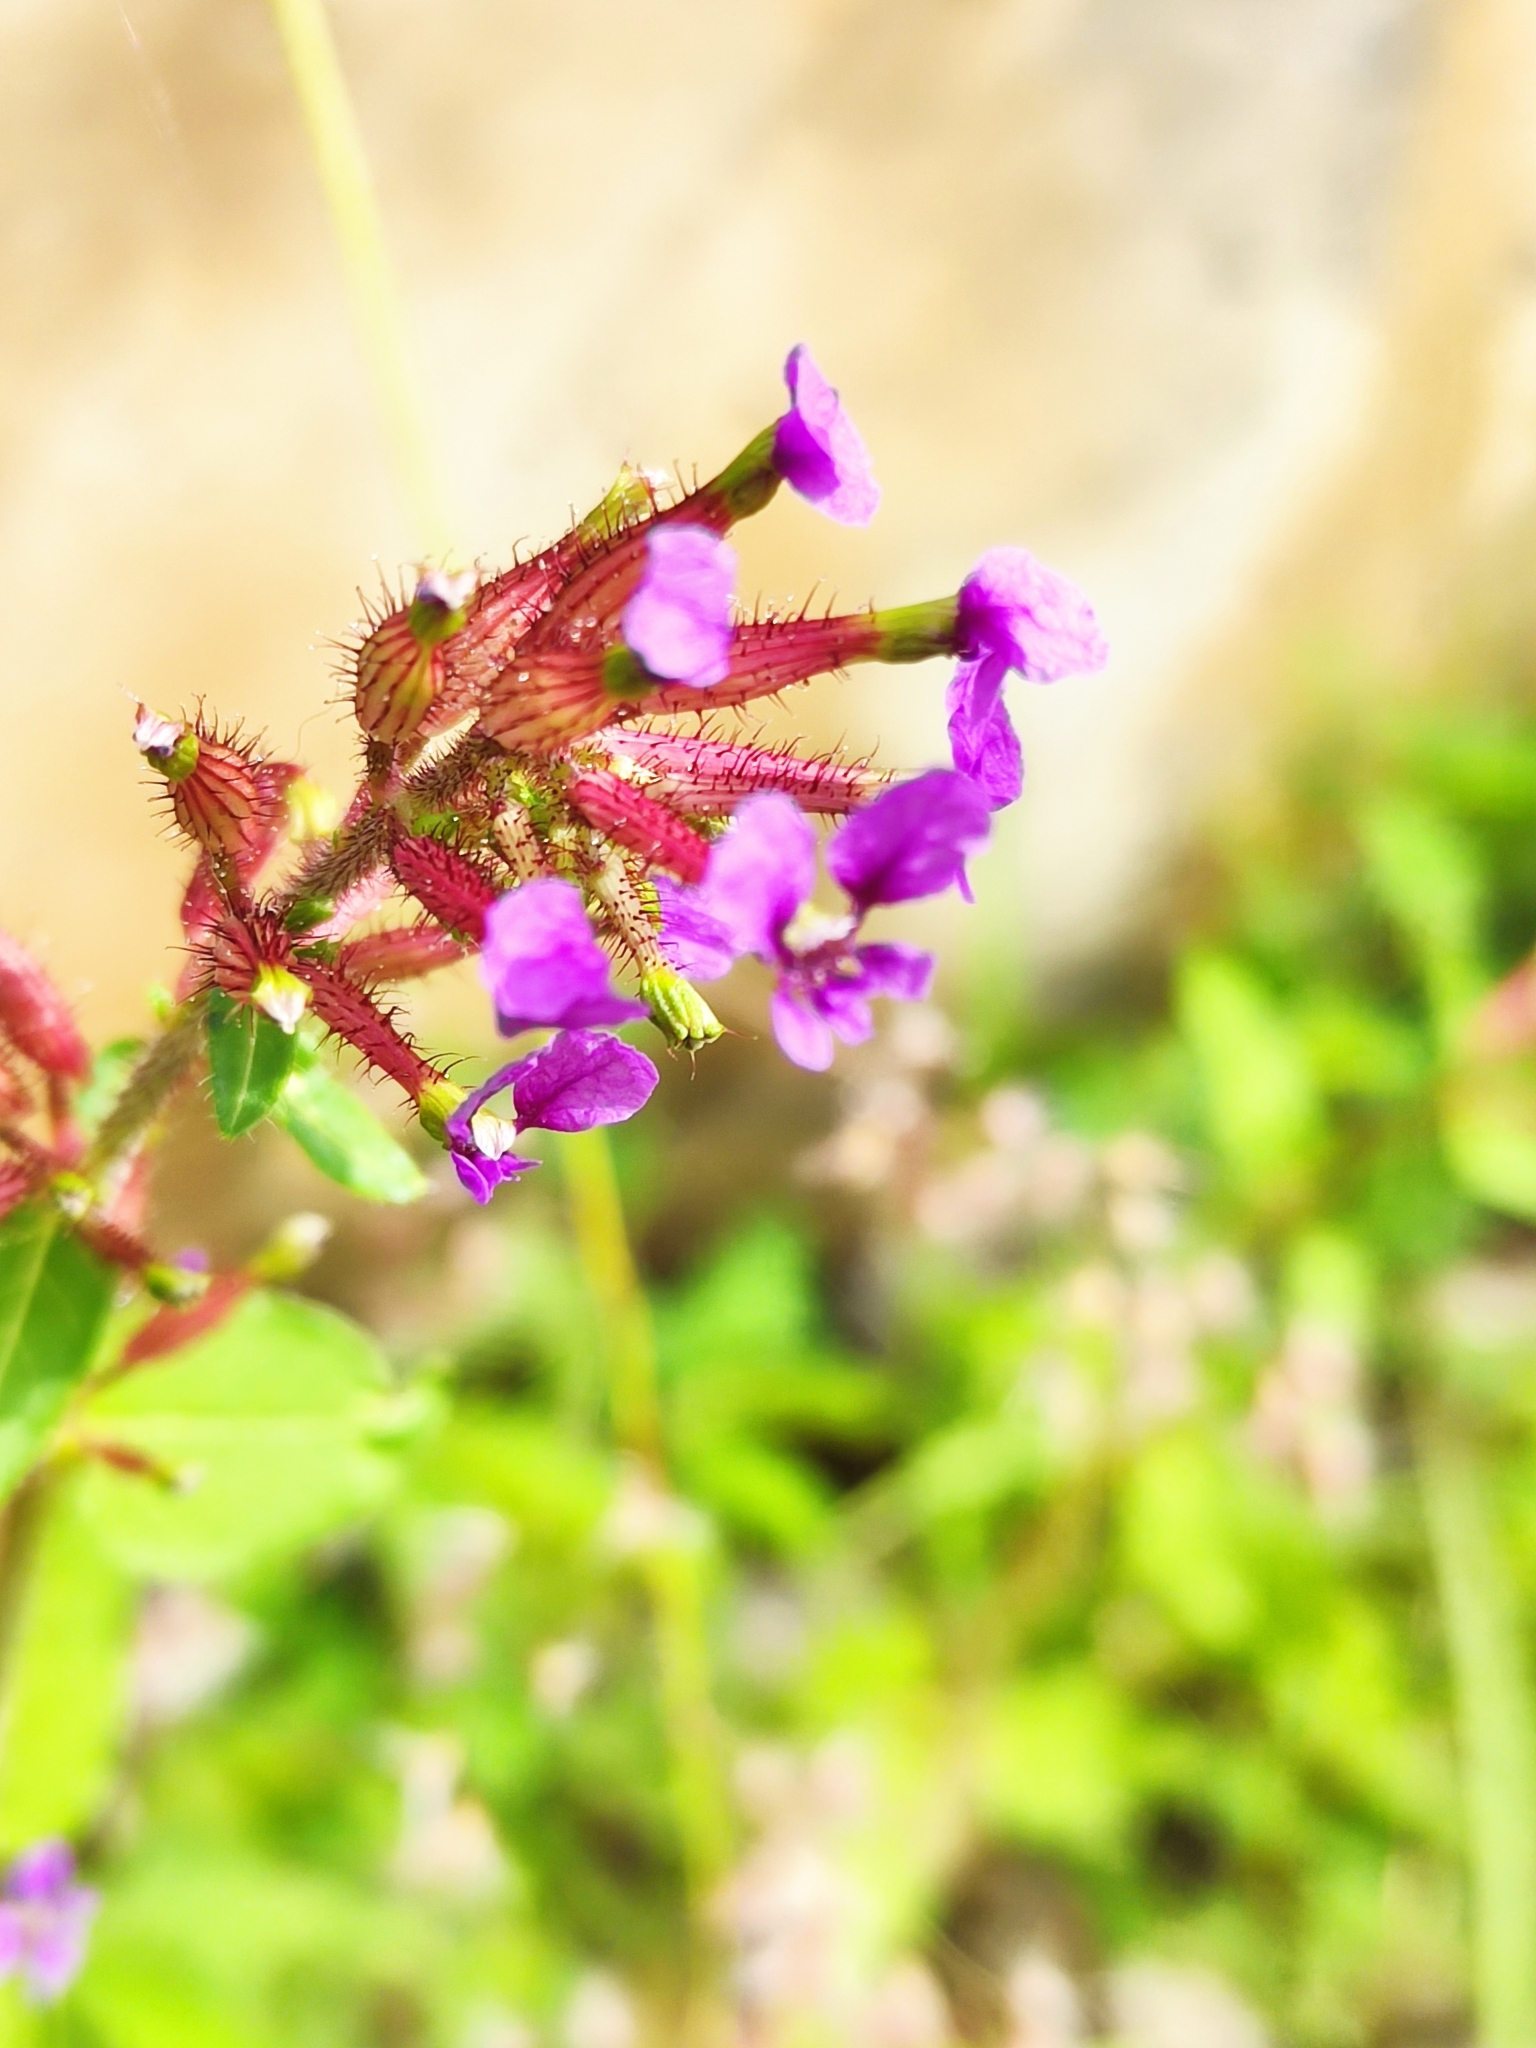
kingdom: Plantae
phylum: Tracheophyta
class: Magnoliopsida
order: Myrtales
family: Lythraceae
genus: Cuphea
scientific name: Cuphea wrightii
